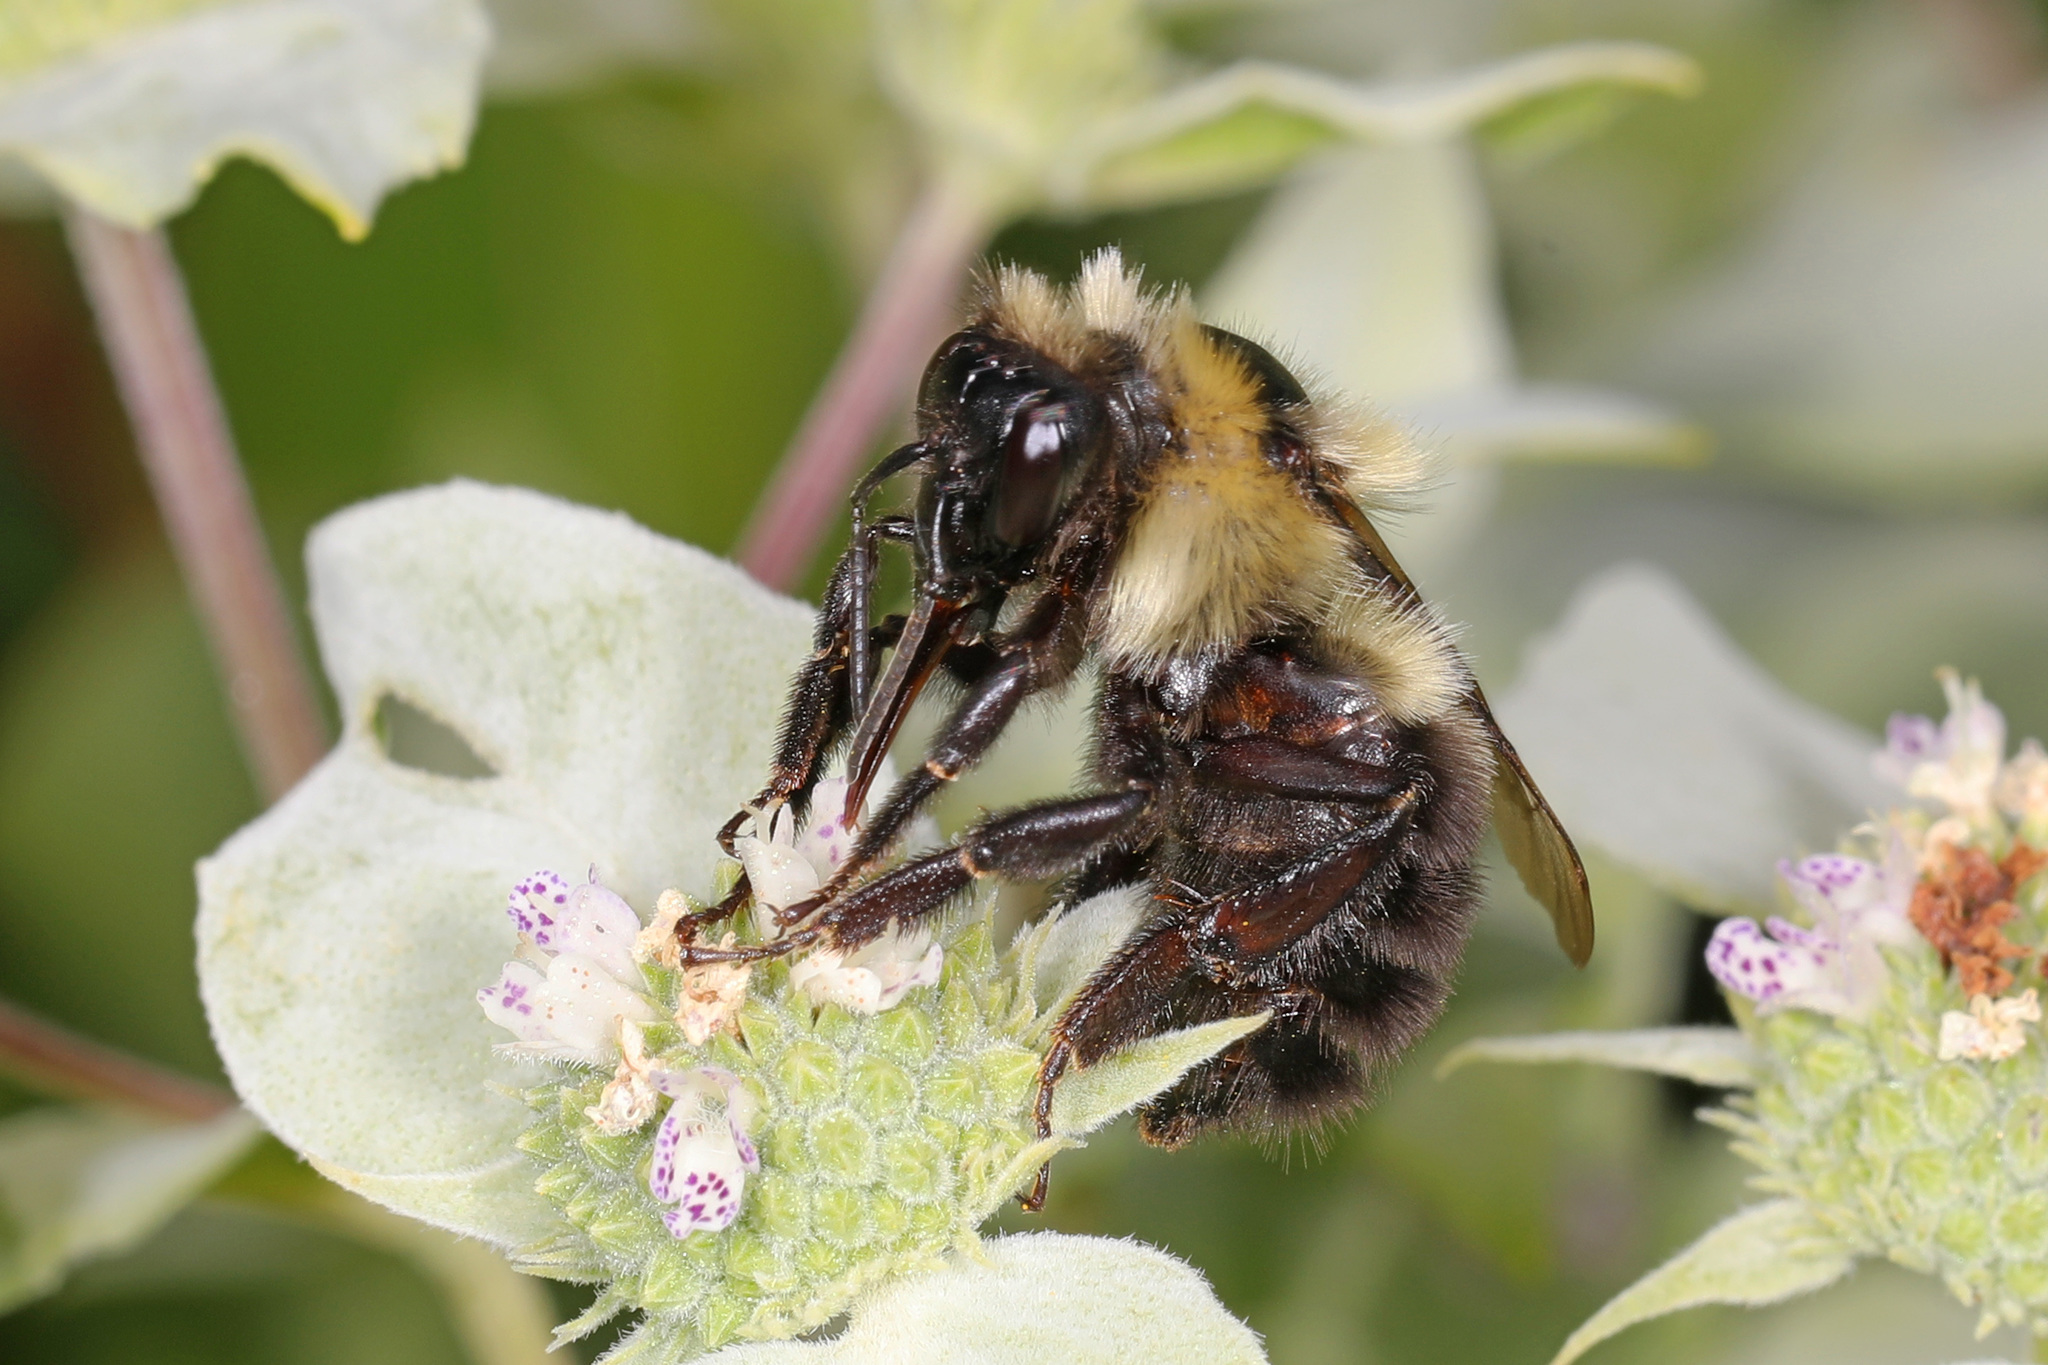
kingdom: Animalia
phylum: Arthropoda
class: Insecta
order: Hymenoptera
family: Apidae
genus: Bombus
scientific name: Bombus bimaculatus
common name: Two-spotted bumble bee
